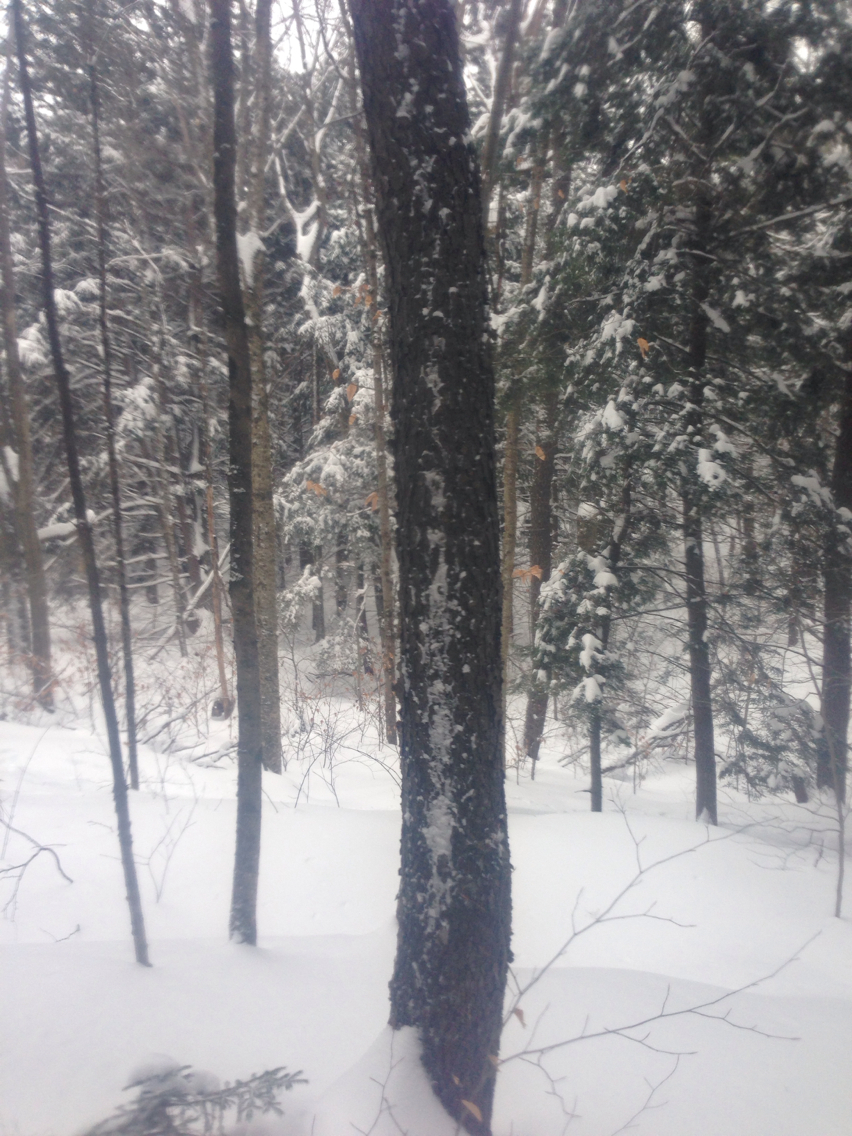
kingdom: Plantae
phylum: Tracheophyta
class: Magnoliopsida
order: Rosales
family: Rosaceae
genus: Prunus
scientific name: Prunus serotina
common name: Black cherry
